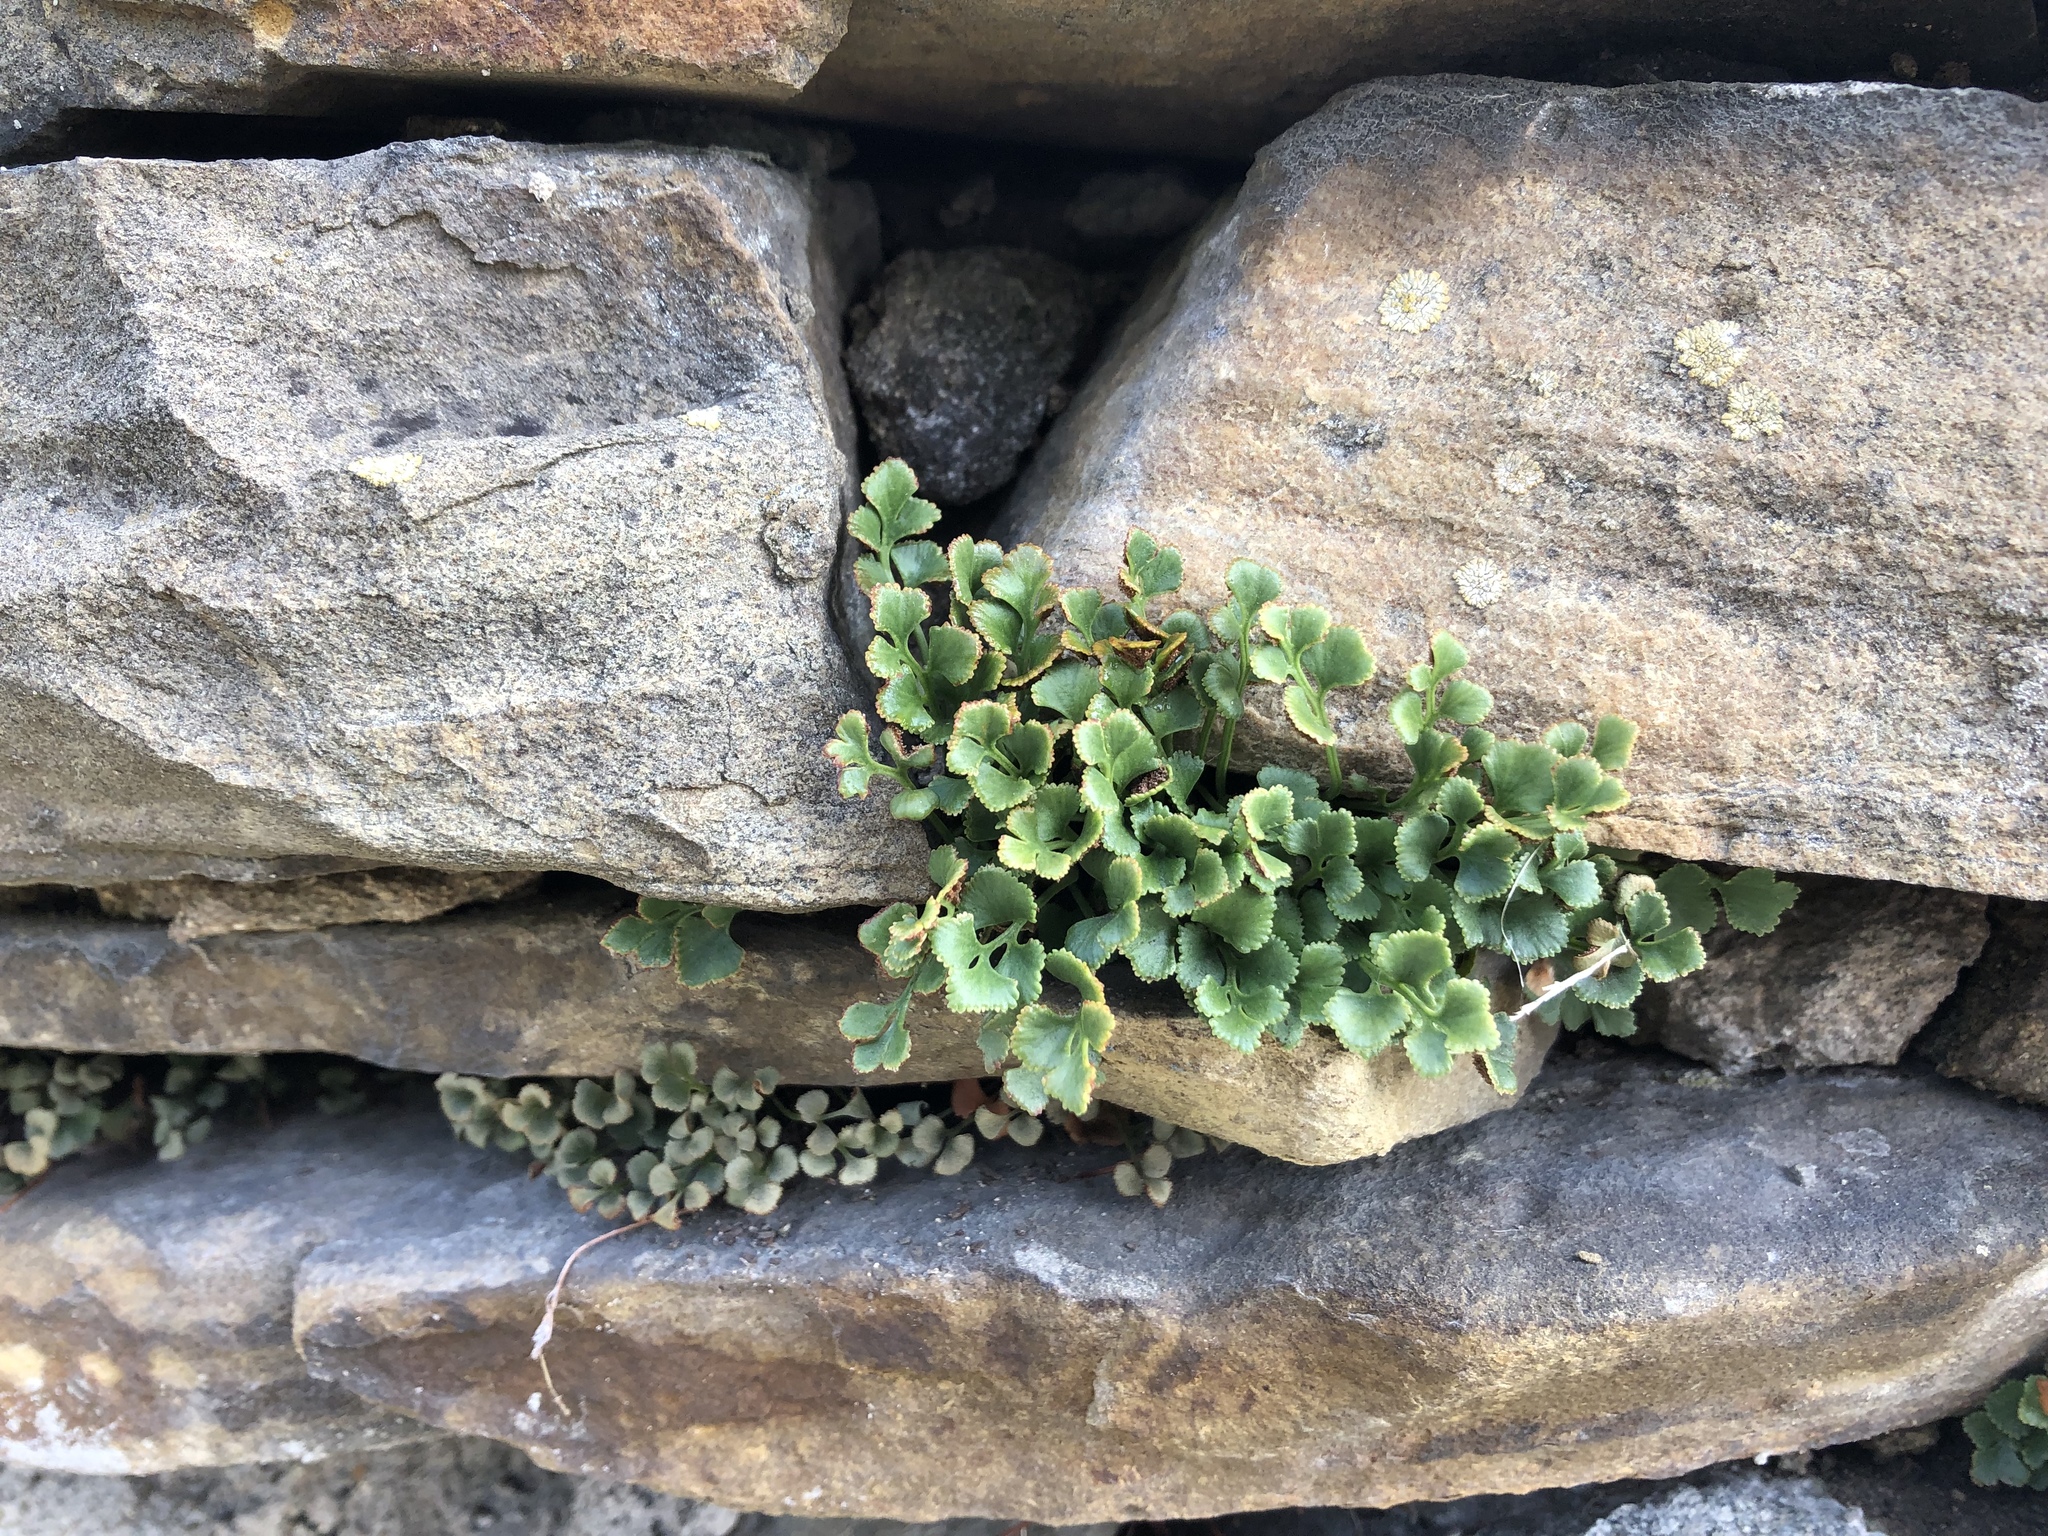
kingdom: Plantae
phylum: Tracheophyta
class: Polypodiopsida
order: Polypodiales
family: Aspleniaceae
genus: Asplenium
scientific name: Asplenium ruta-muraria
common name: Wall-rue
